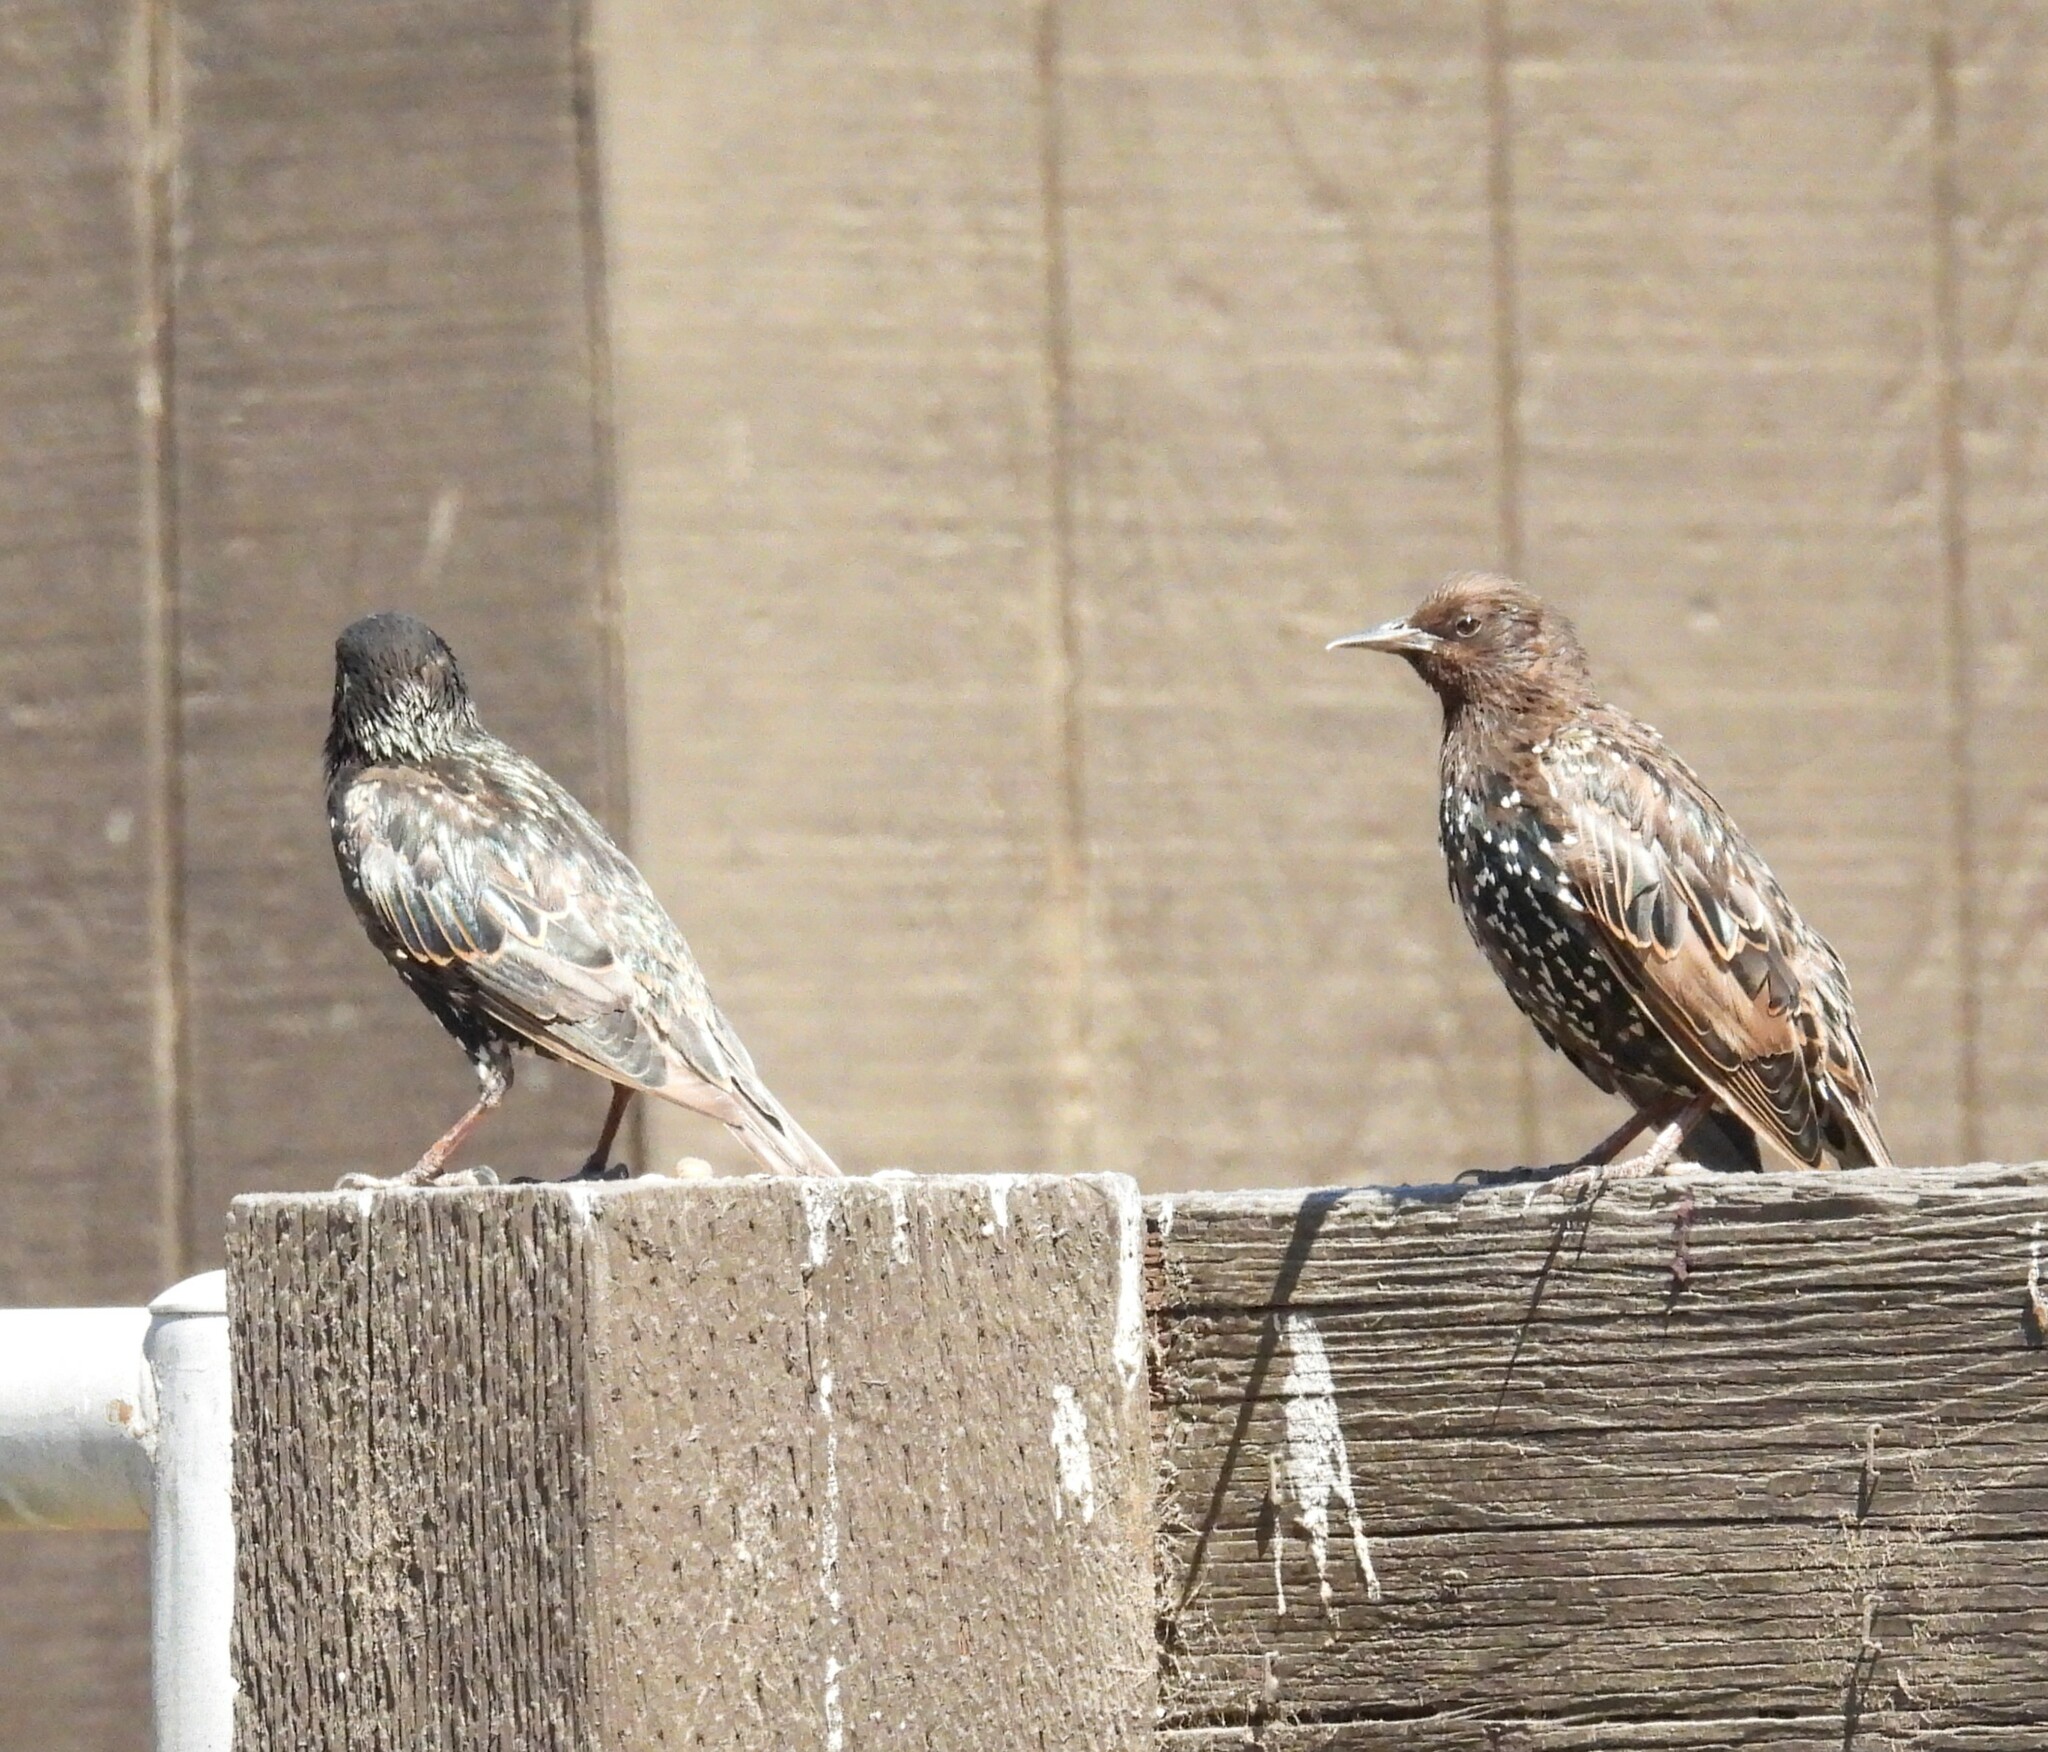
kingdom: Animalia
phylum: Chordata
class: Aves
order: Passeriformes
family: Sturnidae
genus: Sturnus
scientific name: Sturnus vulgaris
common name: Common starling
